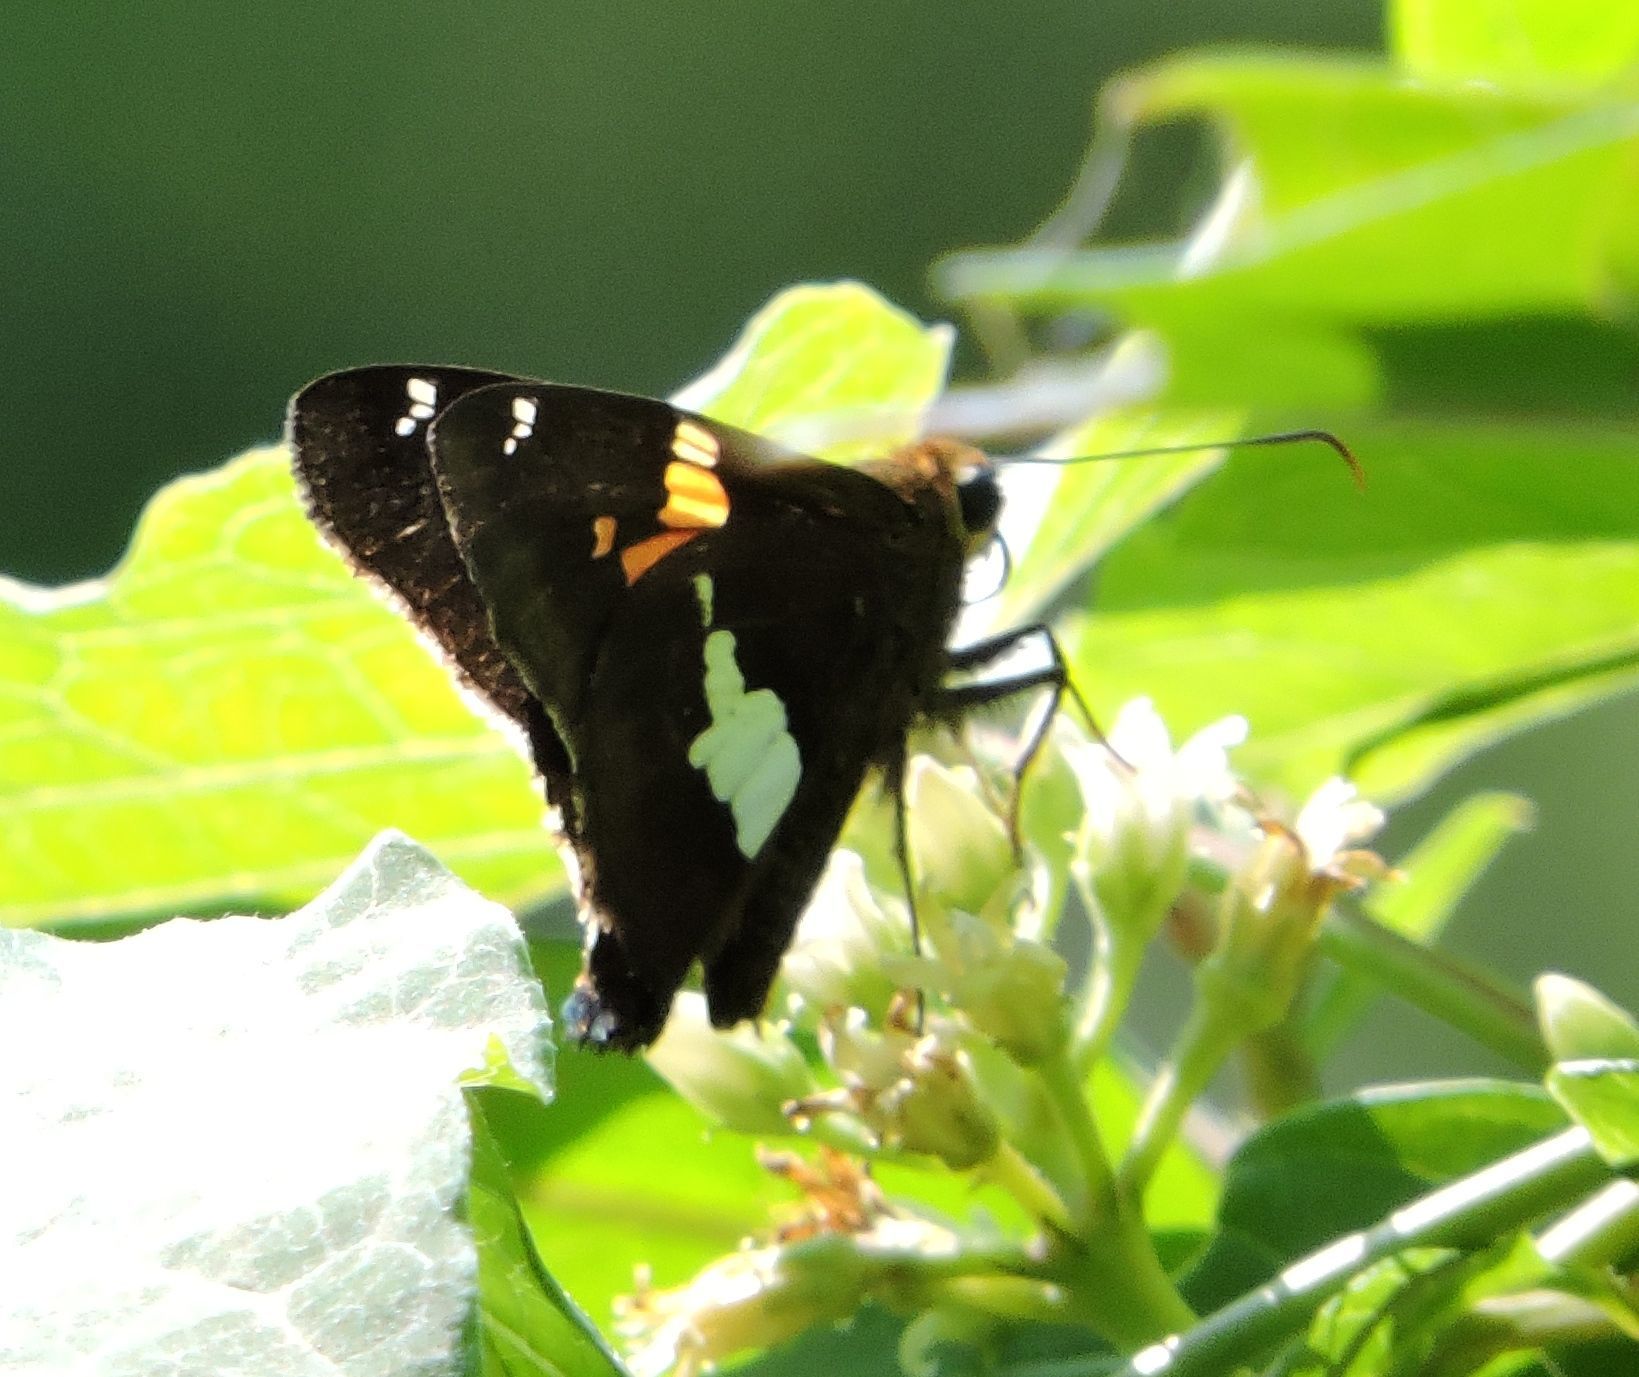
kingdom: Animalia
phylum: Arthropoda
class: Insecta
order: Lepidoptera
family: Hesperiidae
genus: Epargyreus
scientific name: Epargyreus clarus
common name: Silver-spotted skipper
